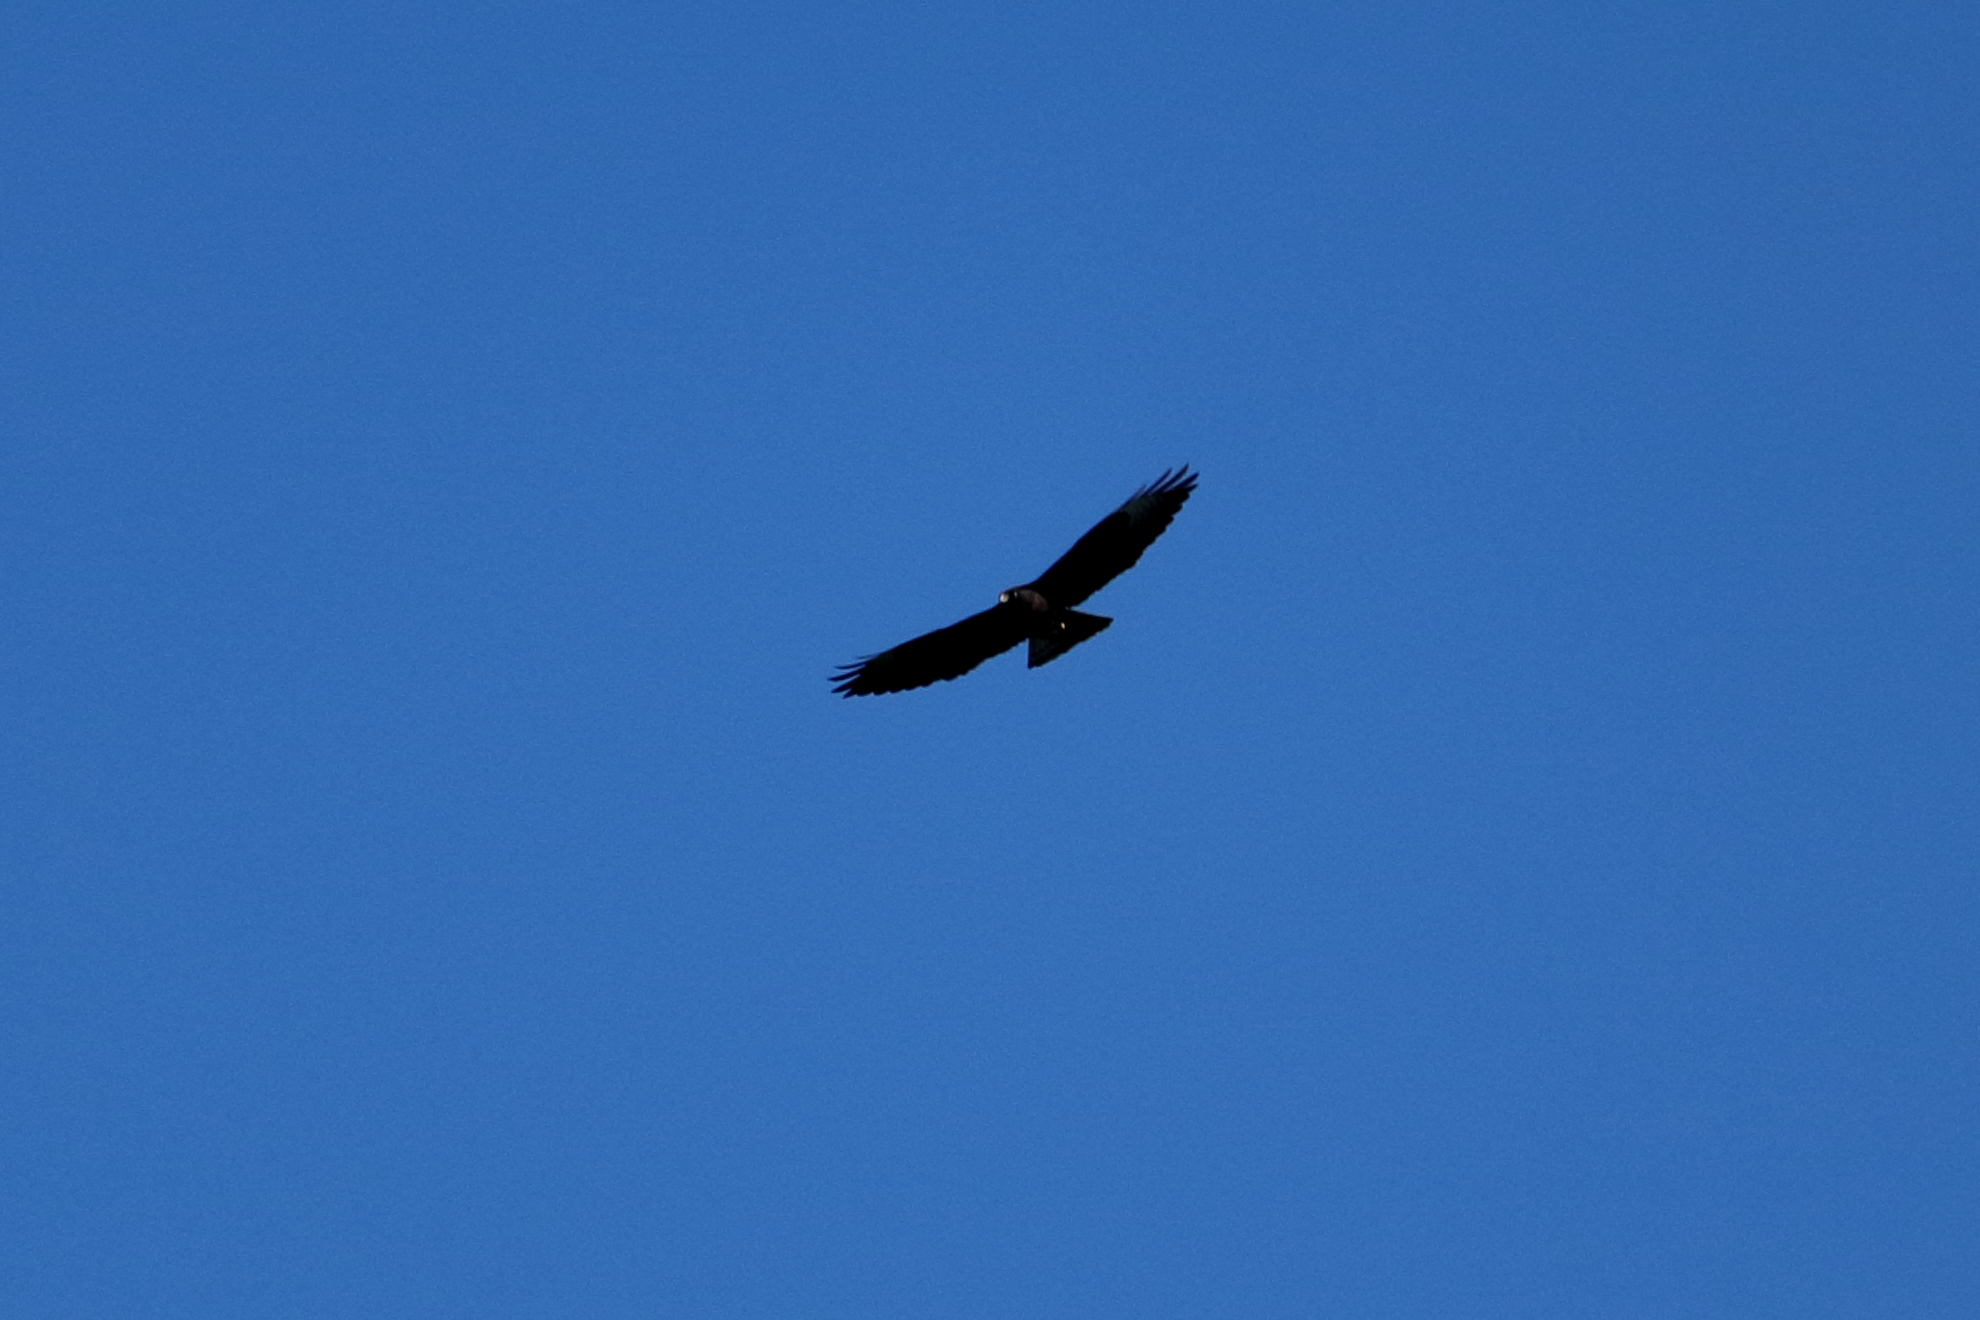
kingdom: Animalia
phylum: Chordata
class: Aves
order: Accipitriformes
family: Accipitridae
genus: Buteo
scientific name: Buteo brachyurus
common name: Short-tailed hawk
